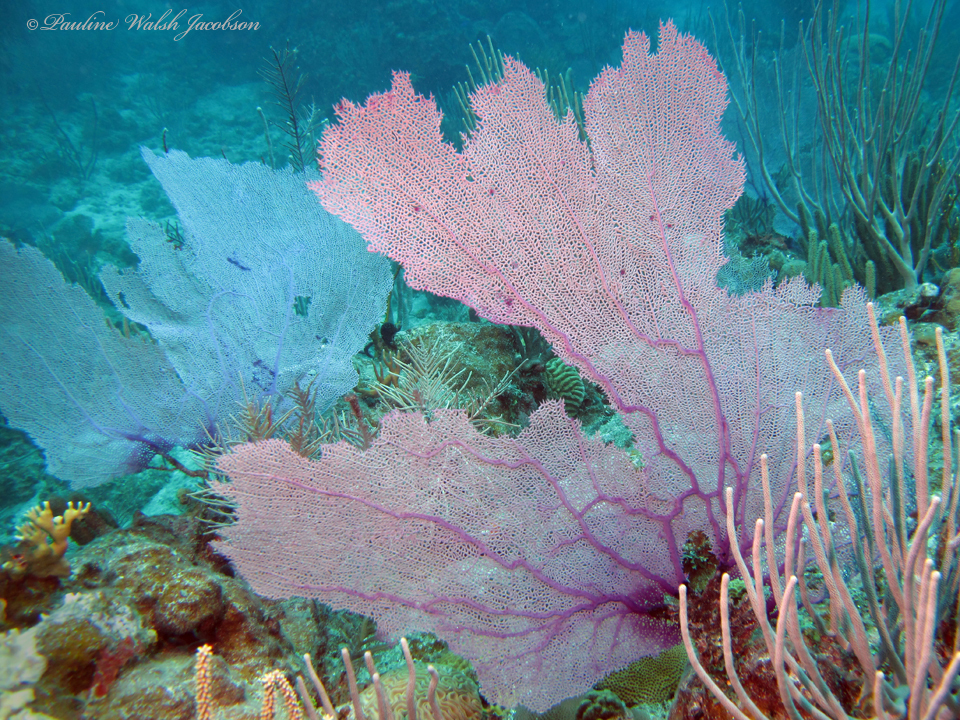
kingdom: Animalia
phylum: Cnidaria
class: Anthozoa
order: Malacalcyonacea
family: Gorgoniidae
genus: Gorgonia
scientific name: Gorgonia ventalina
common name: Common sea fan
